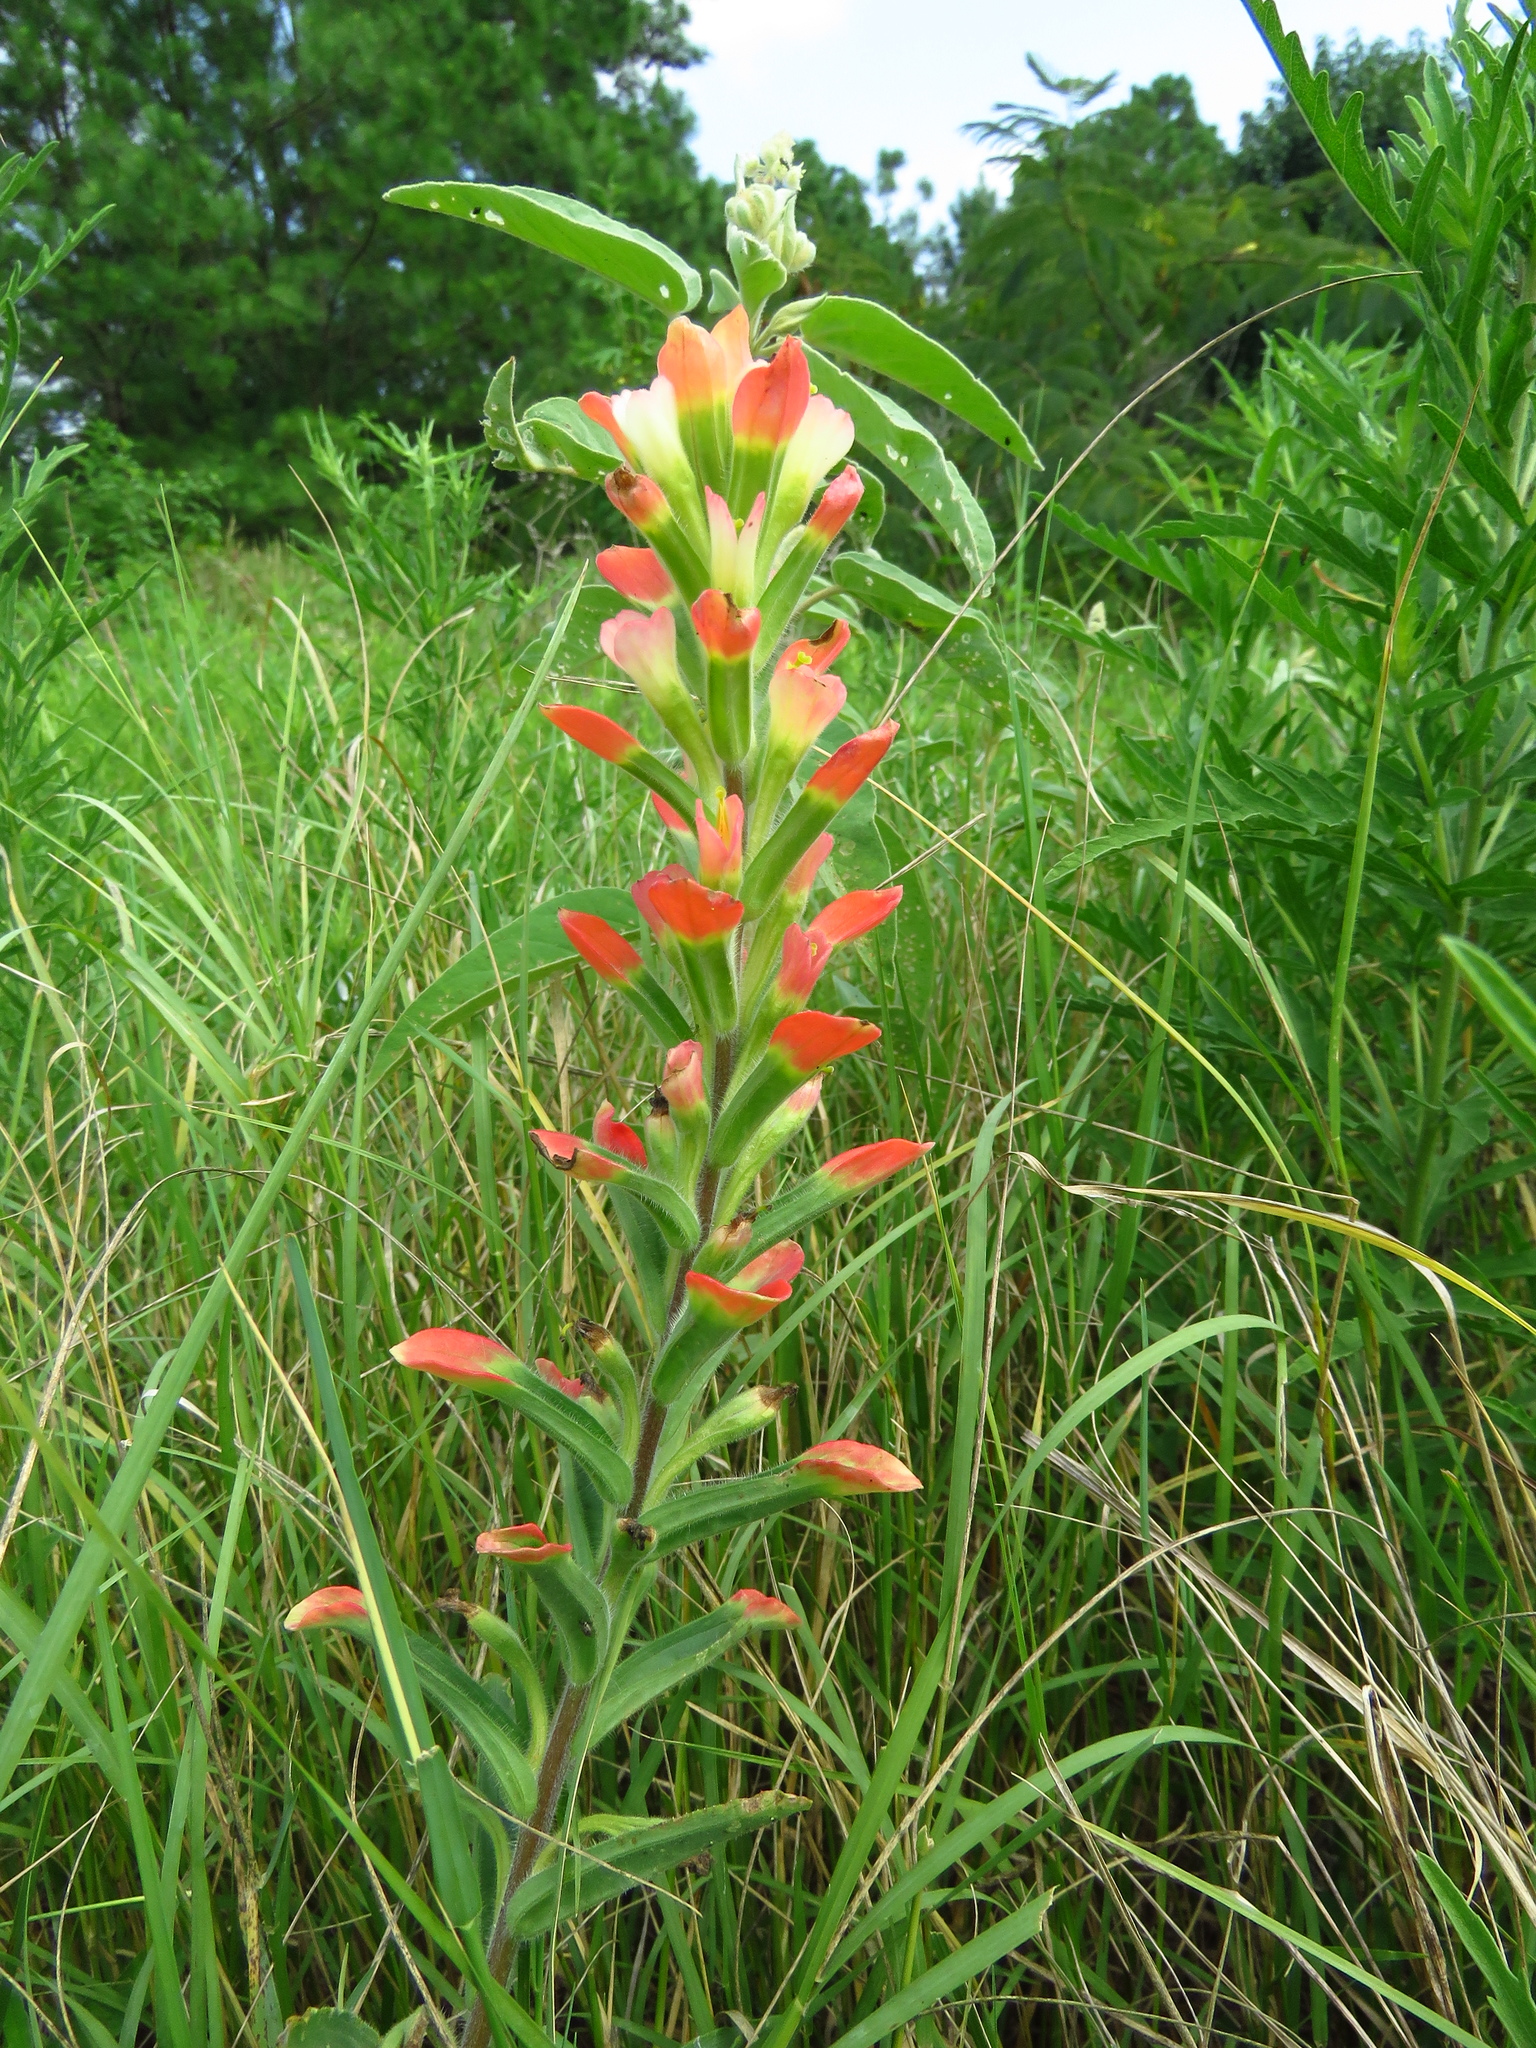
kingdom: Plantae
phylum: Tracheophyta
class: Magnoliopsida
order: Lamiales
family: Orobanchaceae
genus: Castilleja
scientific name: Castilleja indivisa
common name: Texas paintbrush
